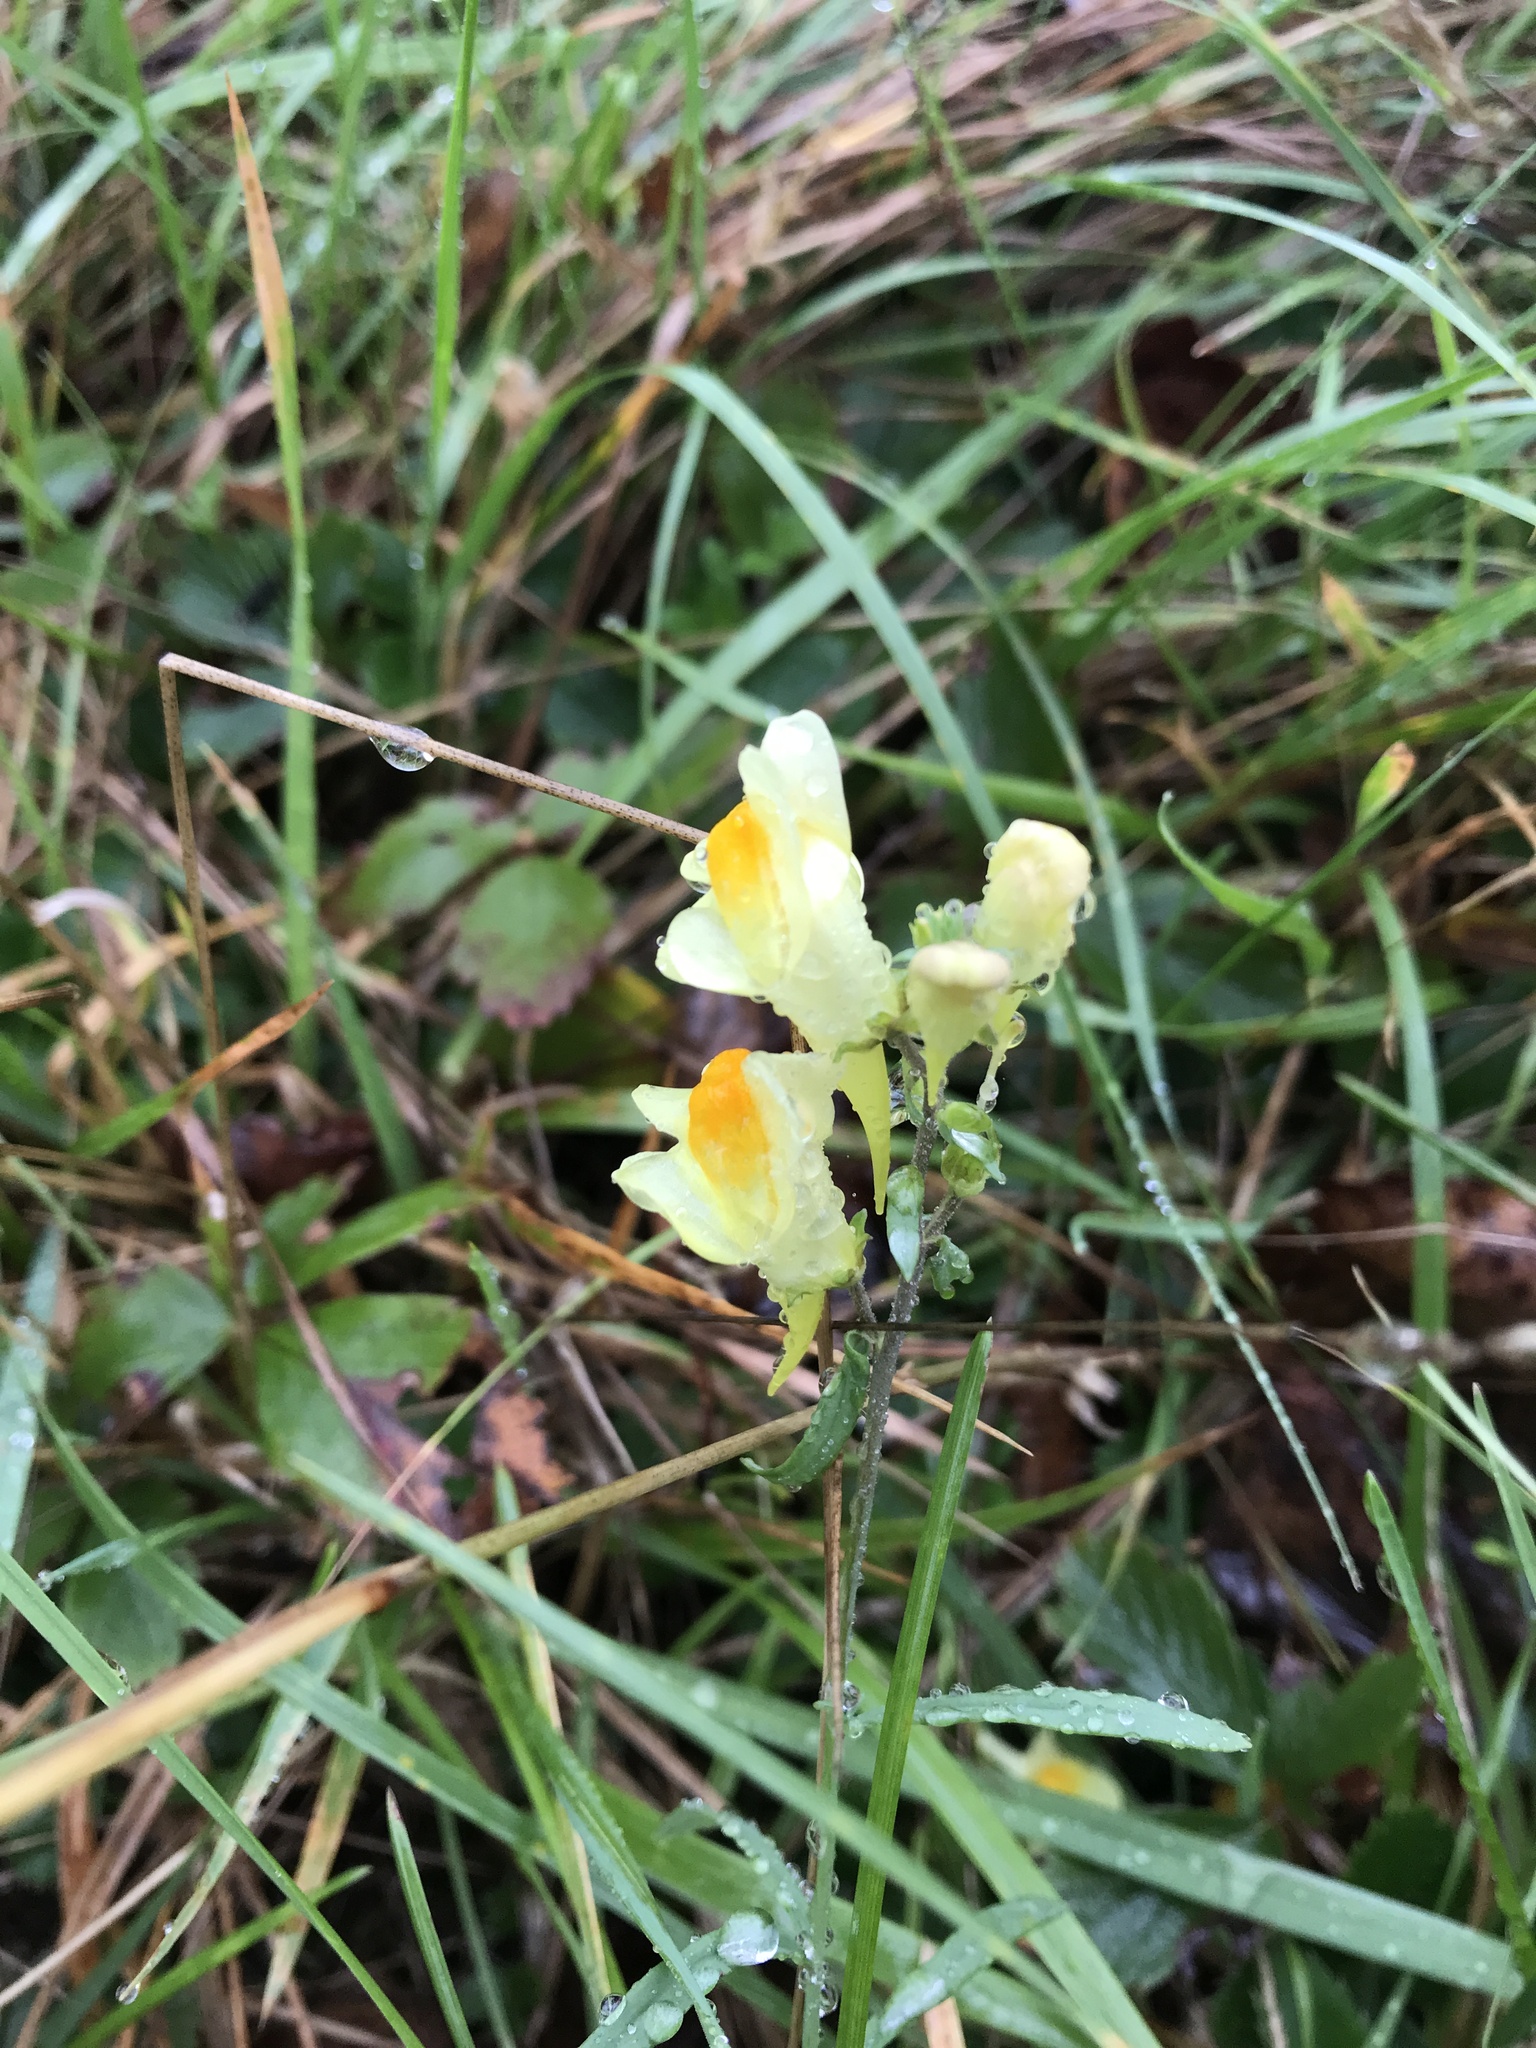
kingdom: Plantae
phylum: Tracheophyta
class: Magnoliopsida
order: Lamiales
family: Plantaginaceae
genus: Linaria
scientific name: Linaria vulgaris
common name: Butter and eggs
